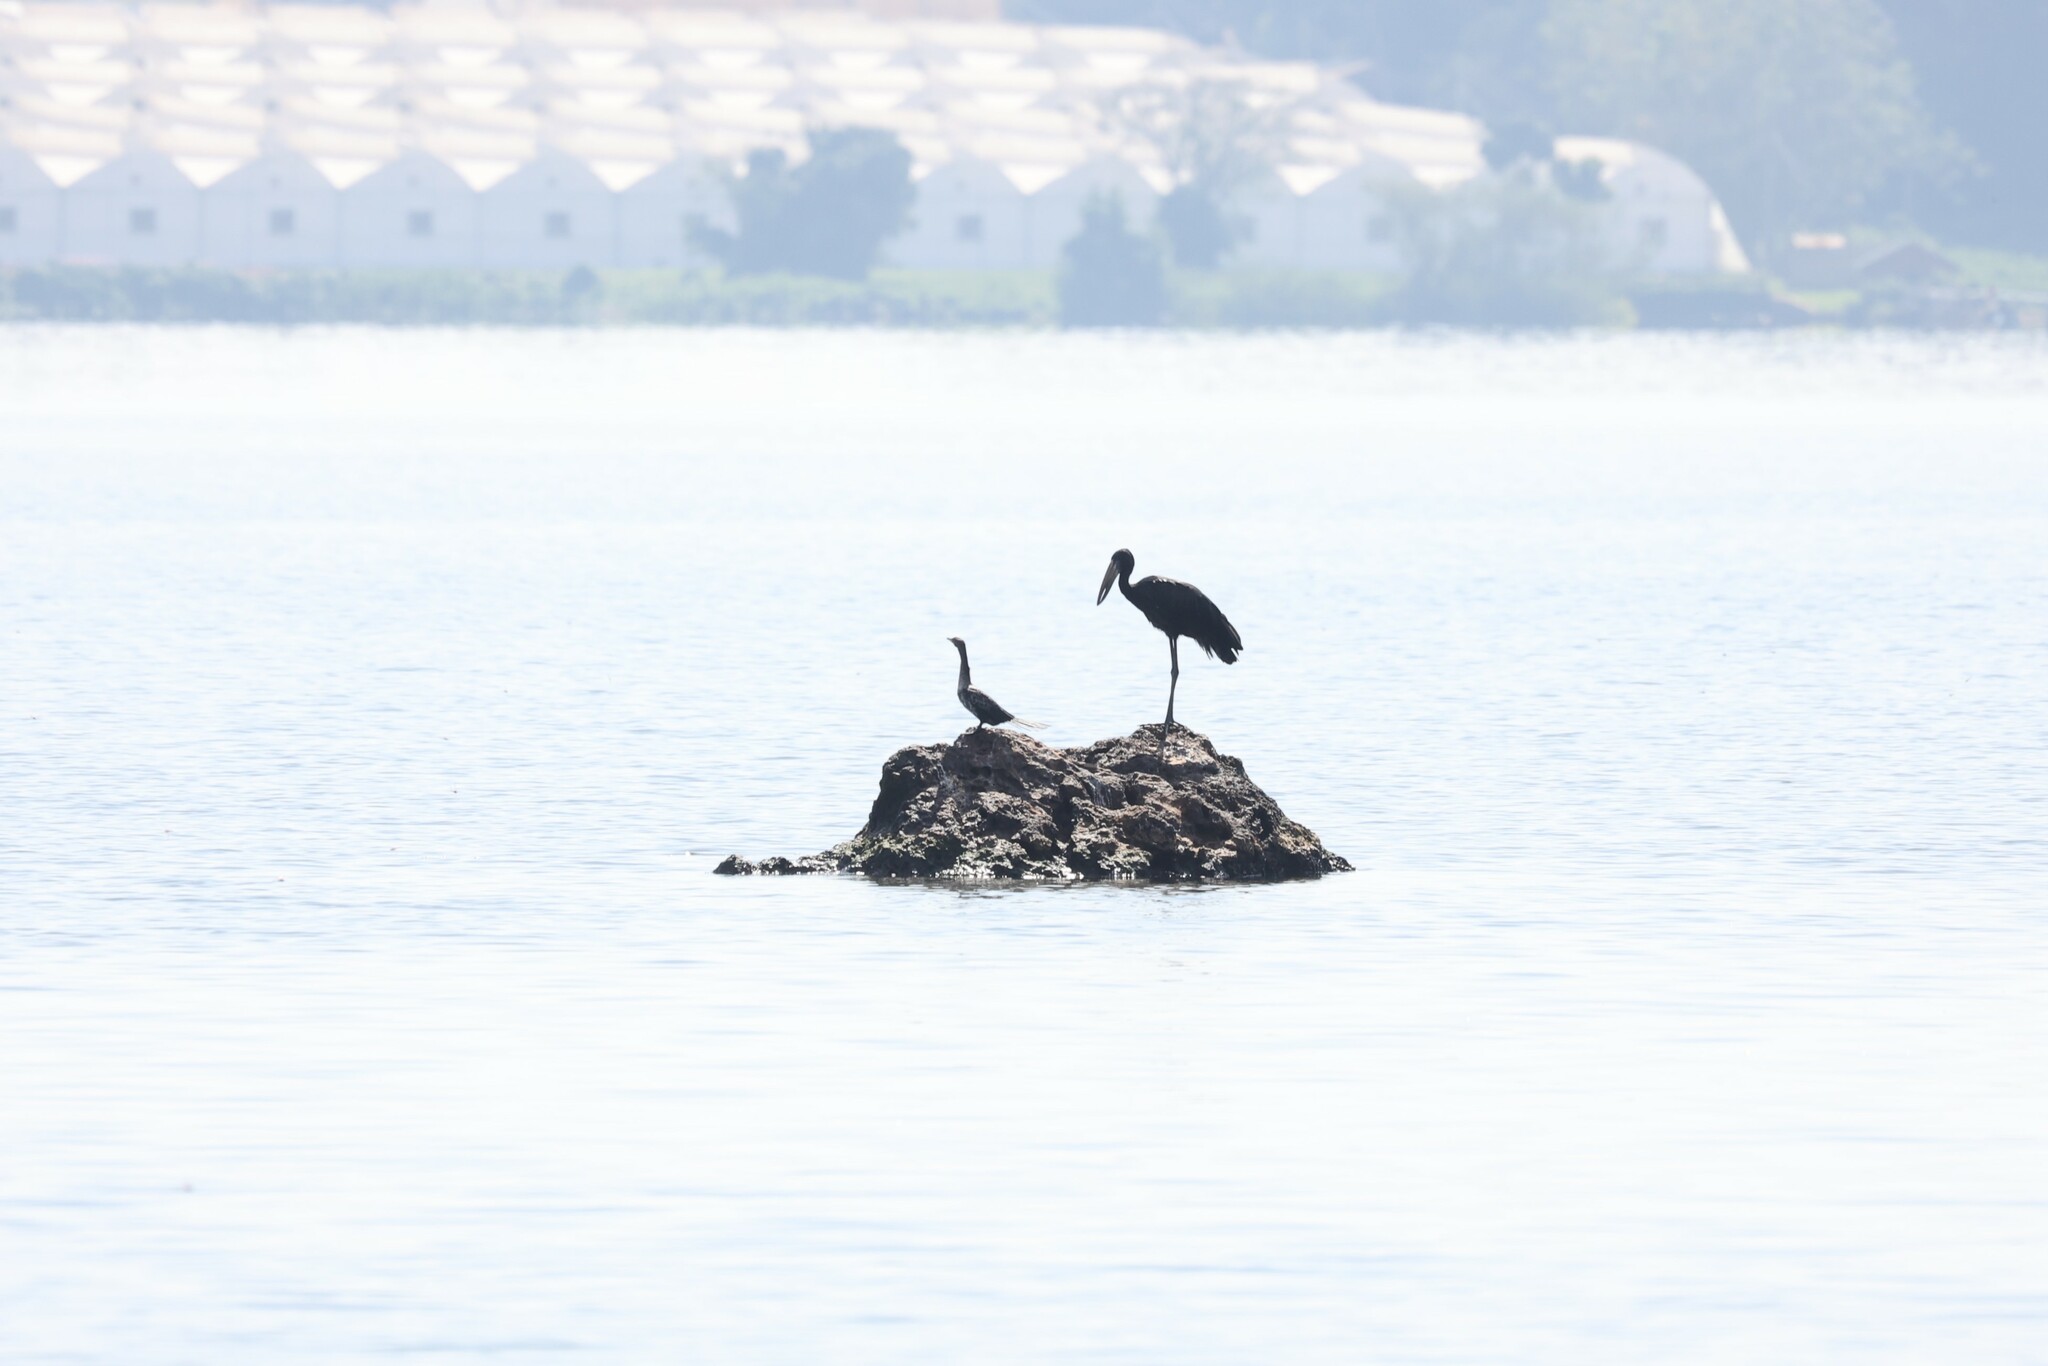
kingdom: Animalia
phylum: Chordata
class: Aves
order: Ciconiiformes
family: Ciconiidae
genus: Anastomus
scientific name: Anastomus lamelligerus
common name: African openbill
